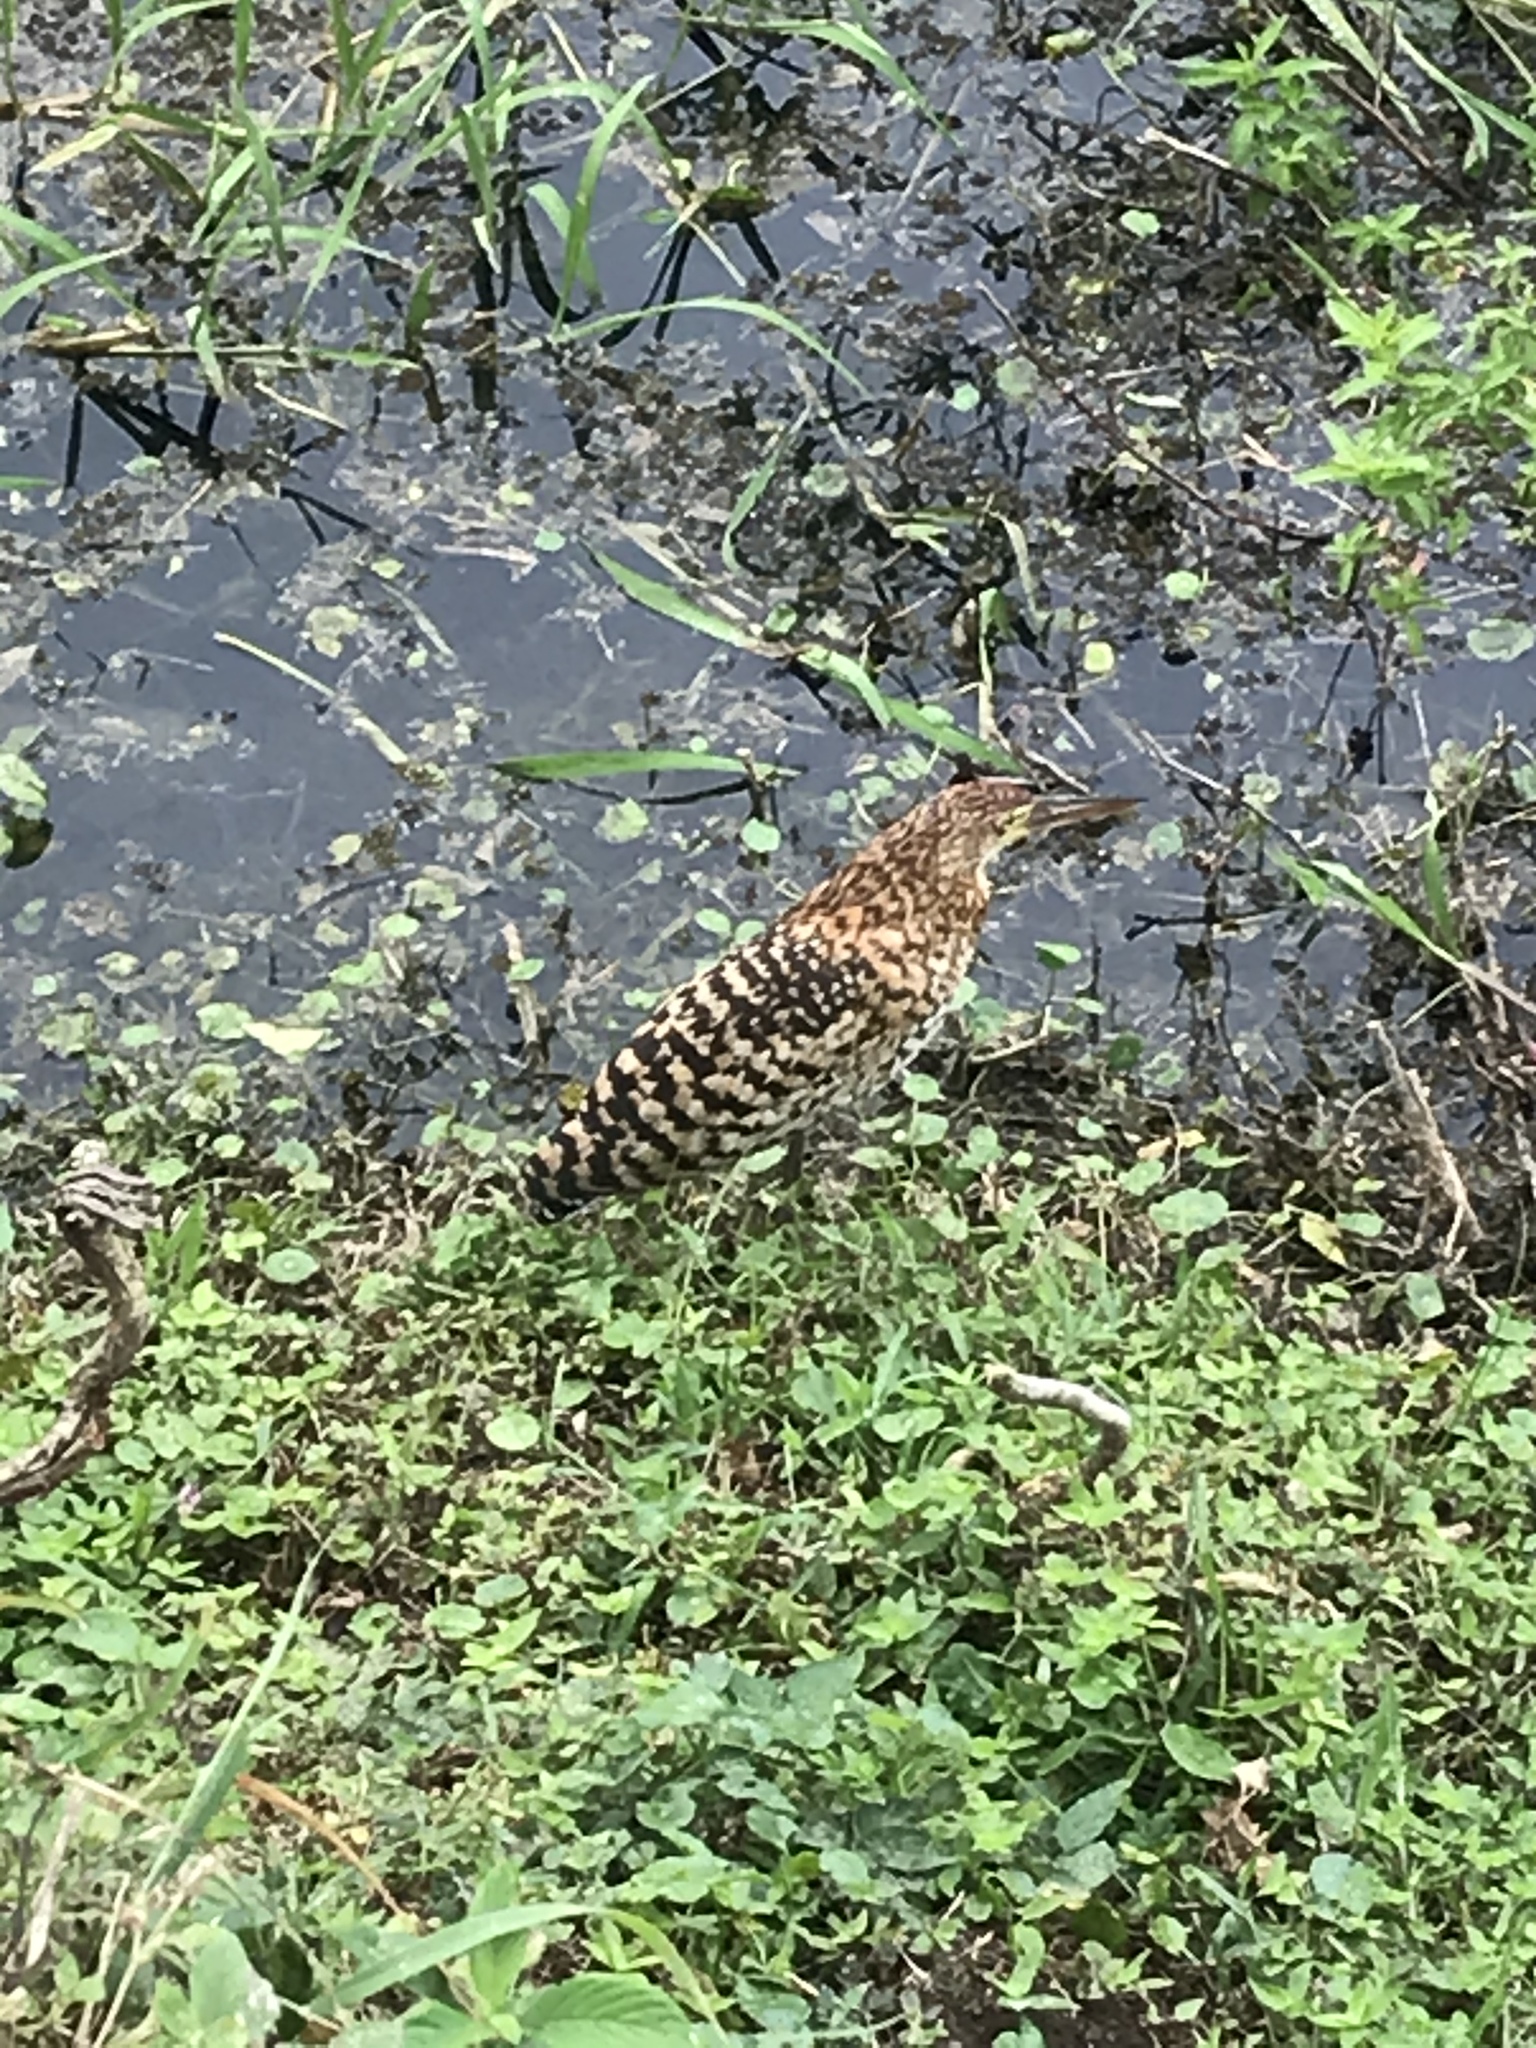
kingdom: Animalia
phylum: Chordata
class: Aves
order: Pelecaniformes
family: Ardeidae
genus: Tigrisoma
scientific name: Tigrisoma lineatum
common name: Rufescent tiger-heron
